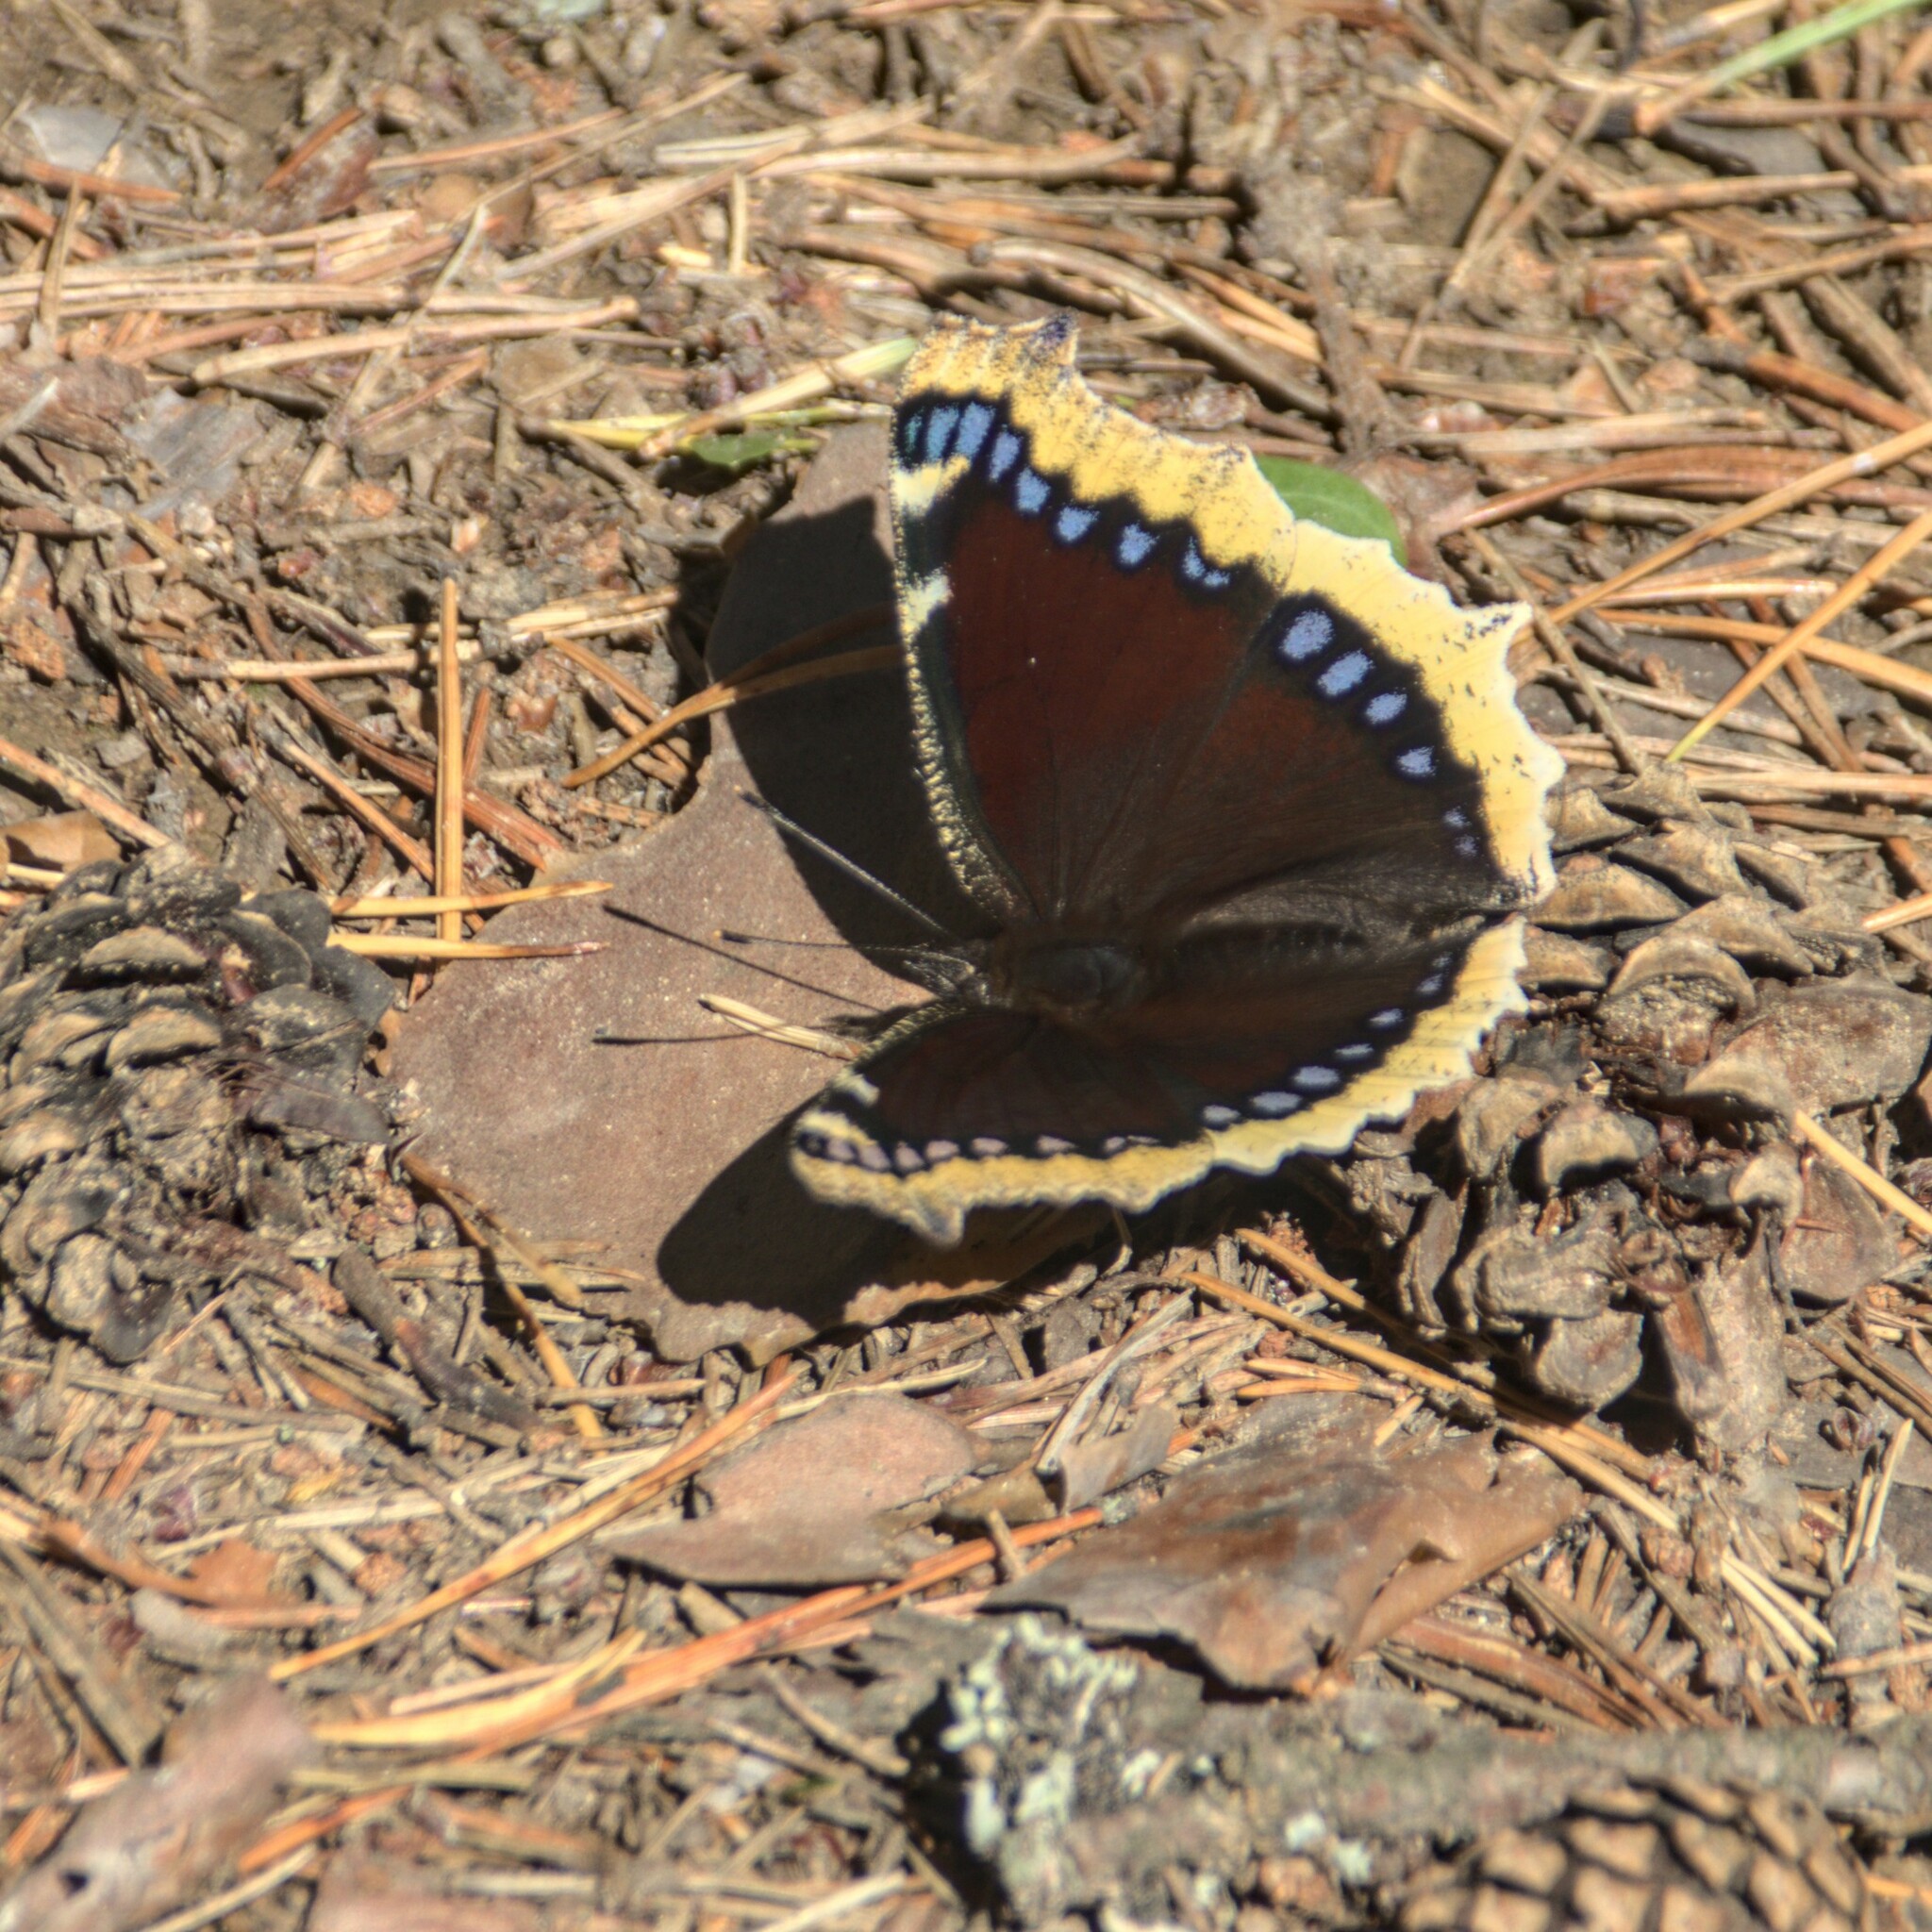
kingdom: Animalia
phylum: Arthropoda
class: Insecta
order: Lepidoptera
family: Nymphalidae
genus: Nymphalis
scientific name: Nymphalis antiopa
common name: Camberwell beauty
